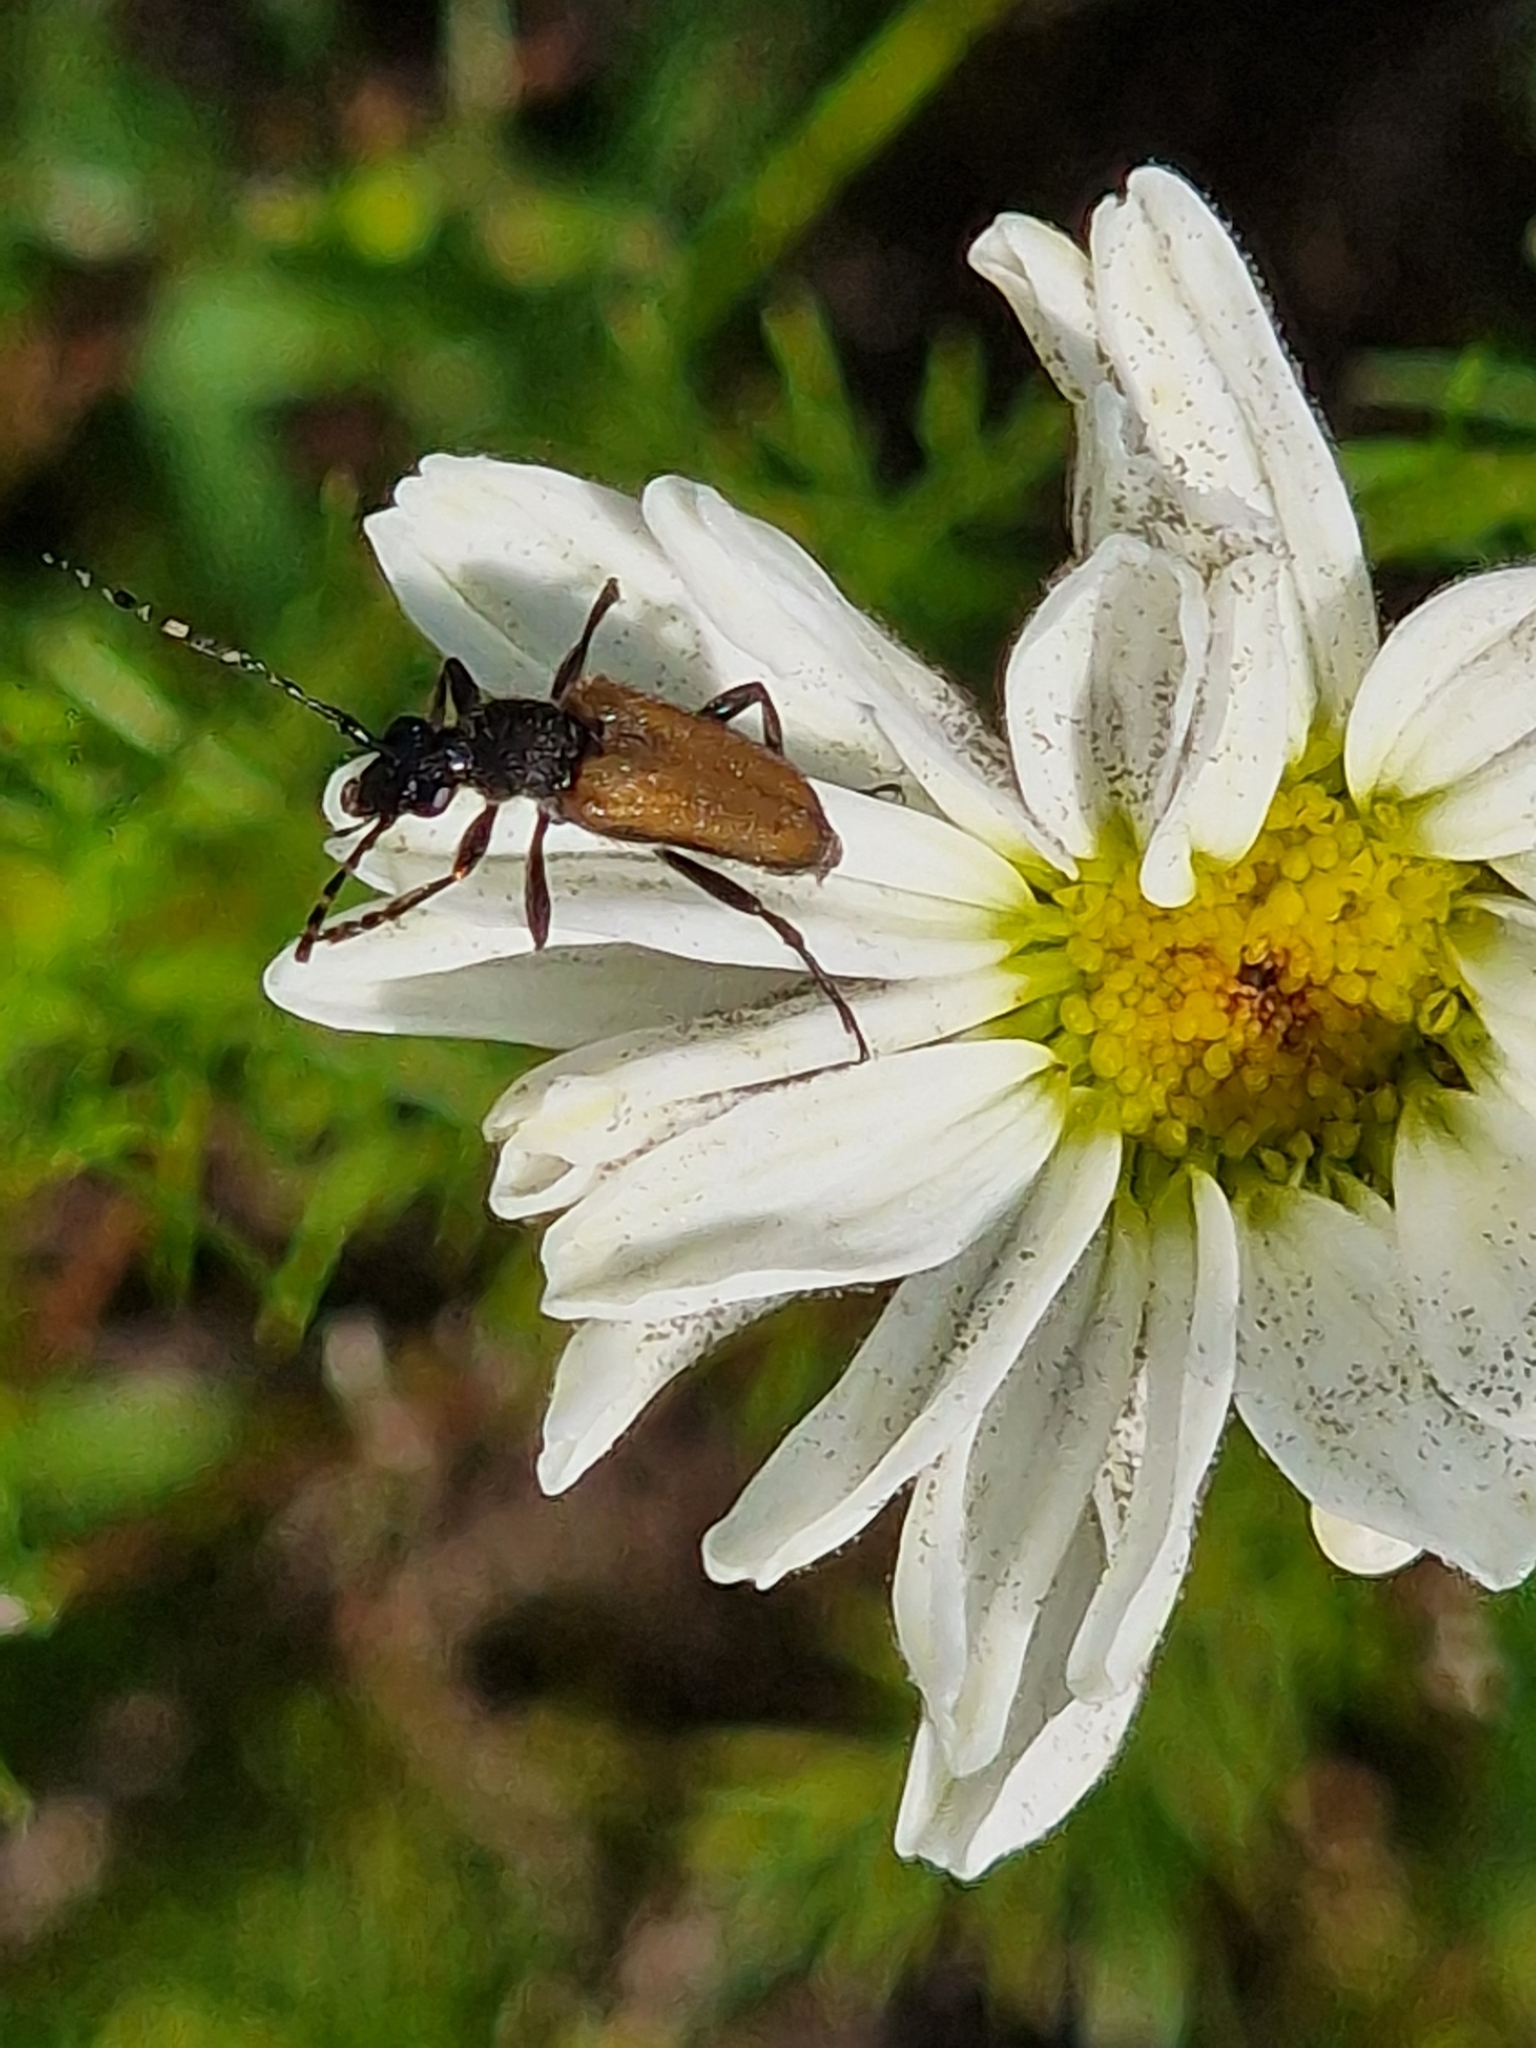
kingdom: Animalia
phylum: Arthropoda
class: Insecta
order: Coleoptera
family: Cerambycidae
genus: Paracorymbia
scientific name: Paracorymbia maculicornis
